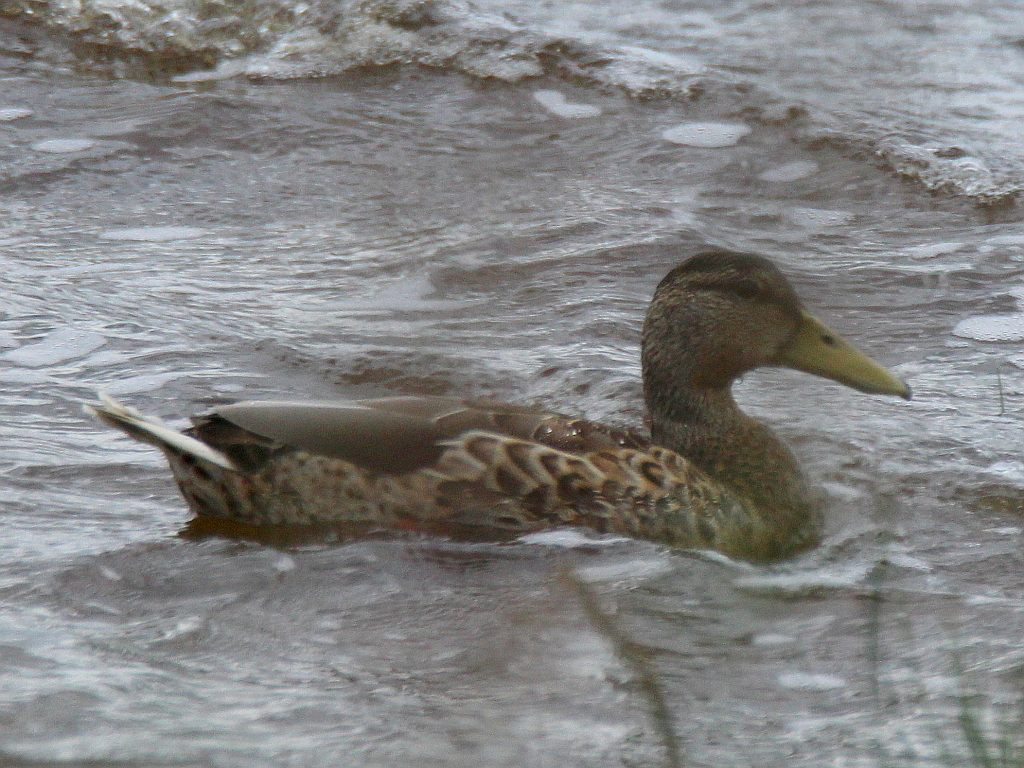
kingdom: Animalia
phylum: Chordata
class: Aves
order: Anseriformes
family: Anatidae
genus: Anas
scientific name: Anas platyrhynchos
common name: Mallard
